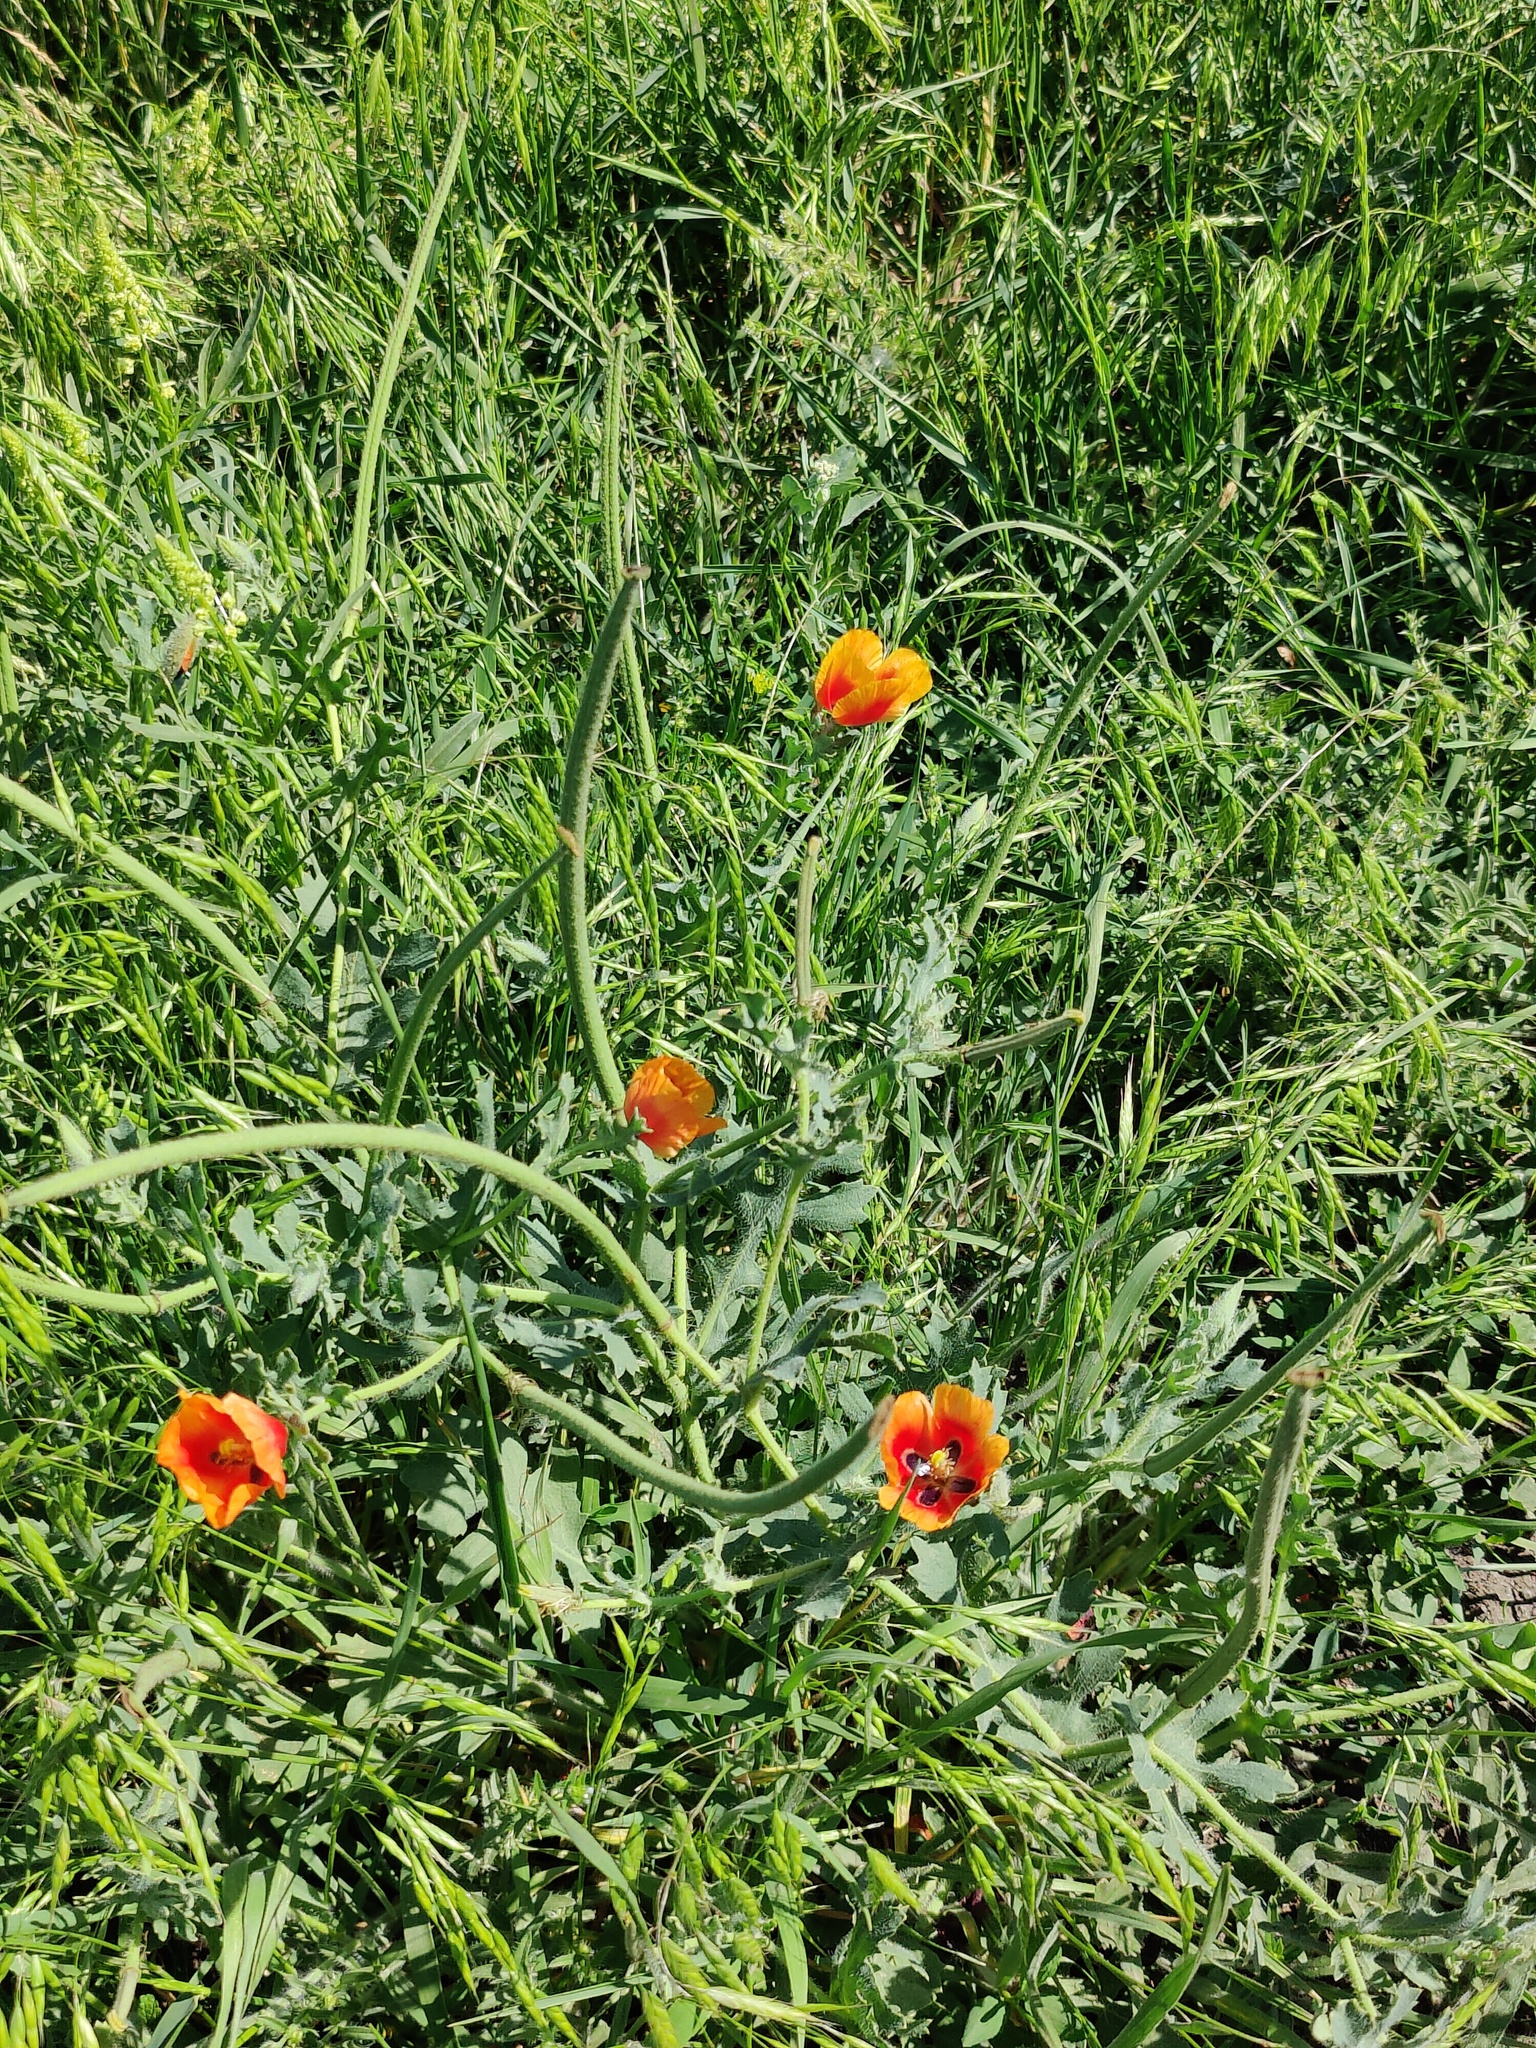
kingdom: Plantae
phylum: Tracheophyta
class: Magnoliopsida
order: Ranunculales
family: Papaveraceae
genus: Glaucium
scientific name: Glaucium corniculatum
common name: Red horned-poppy
